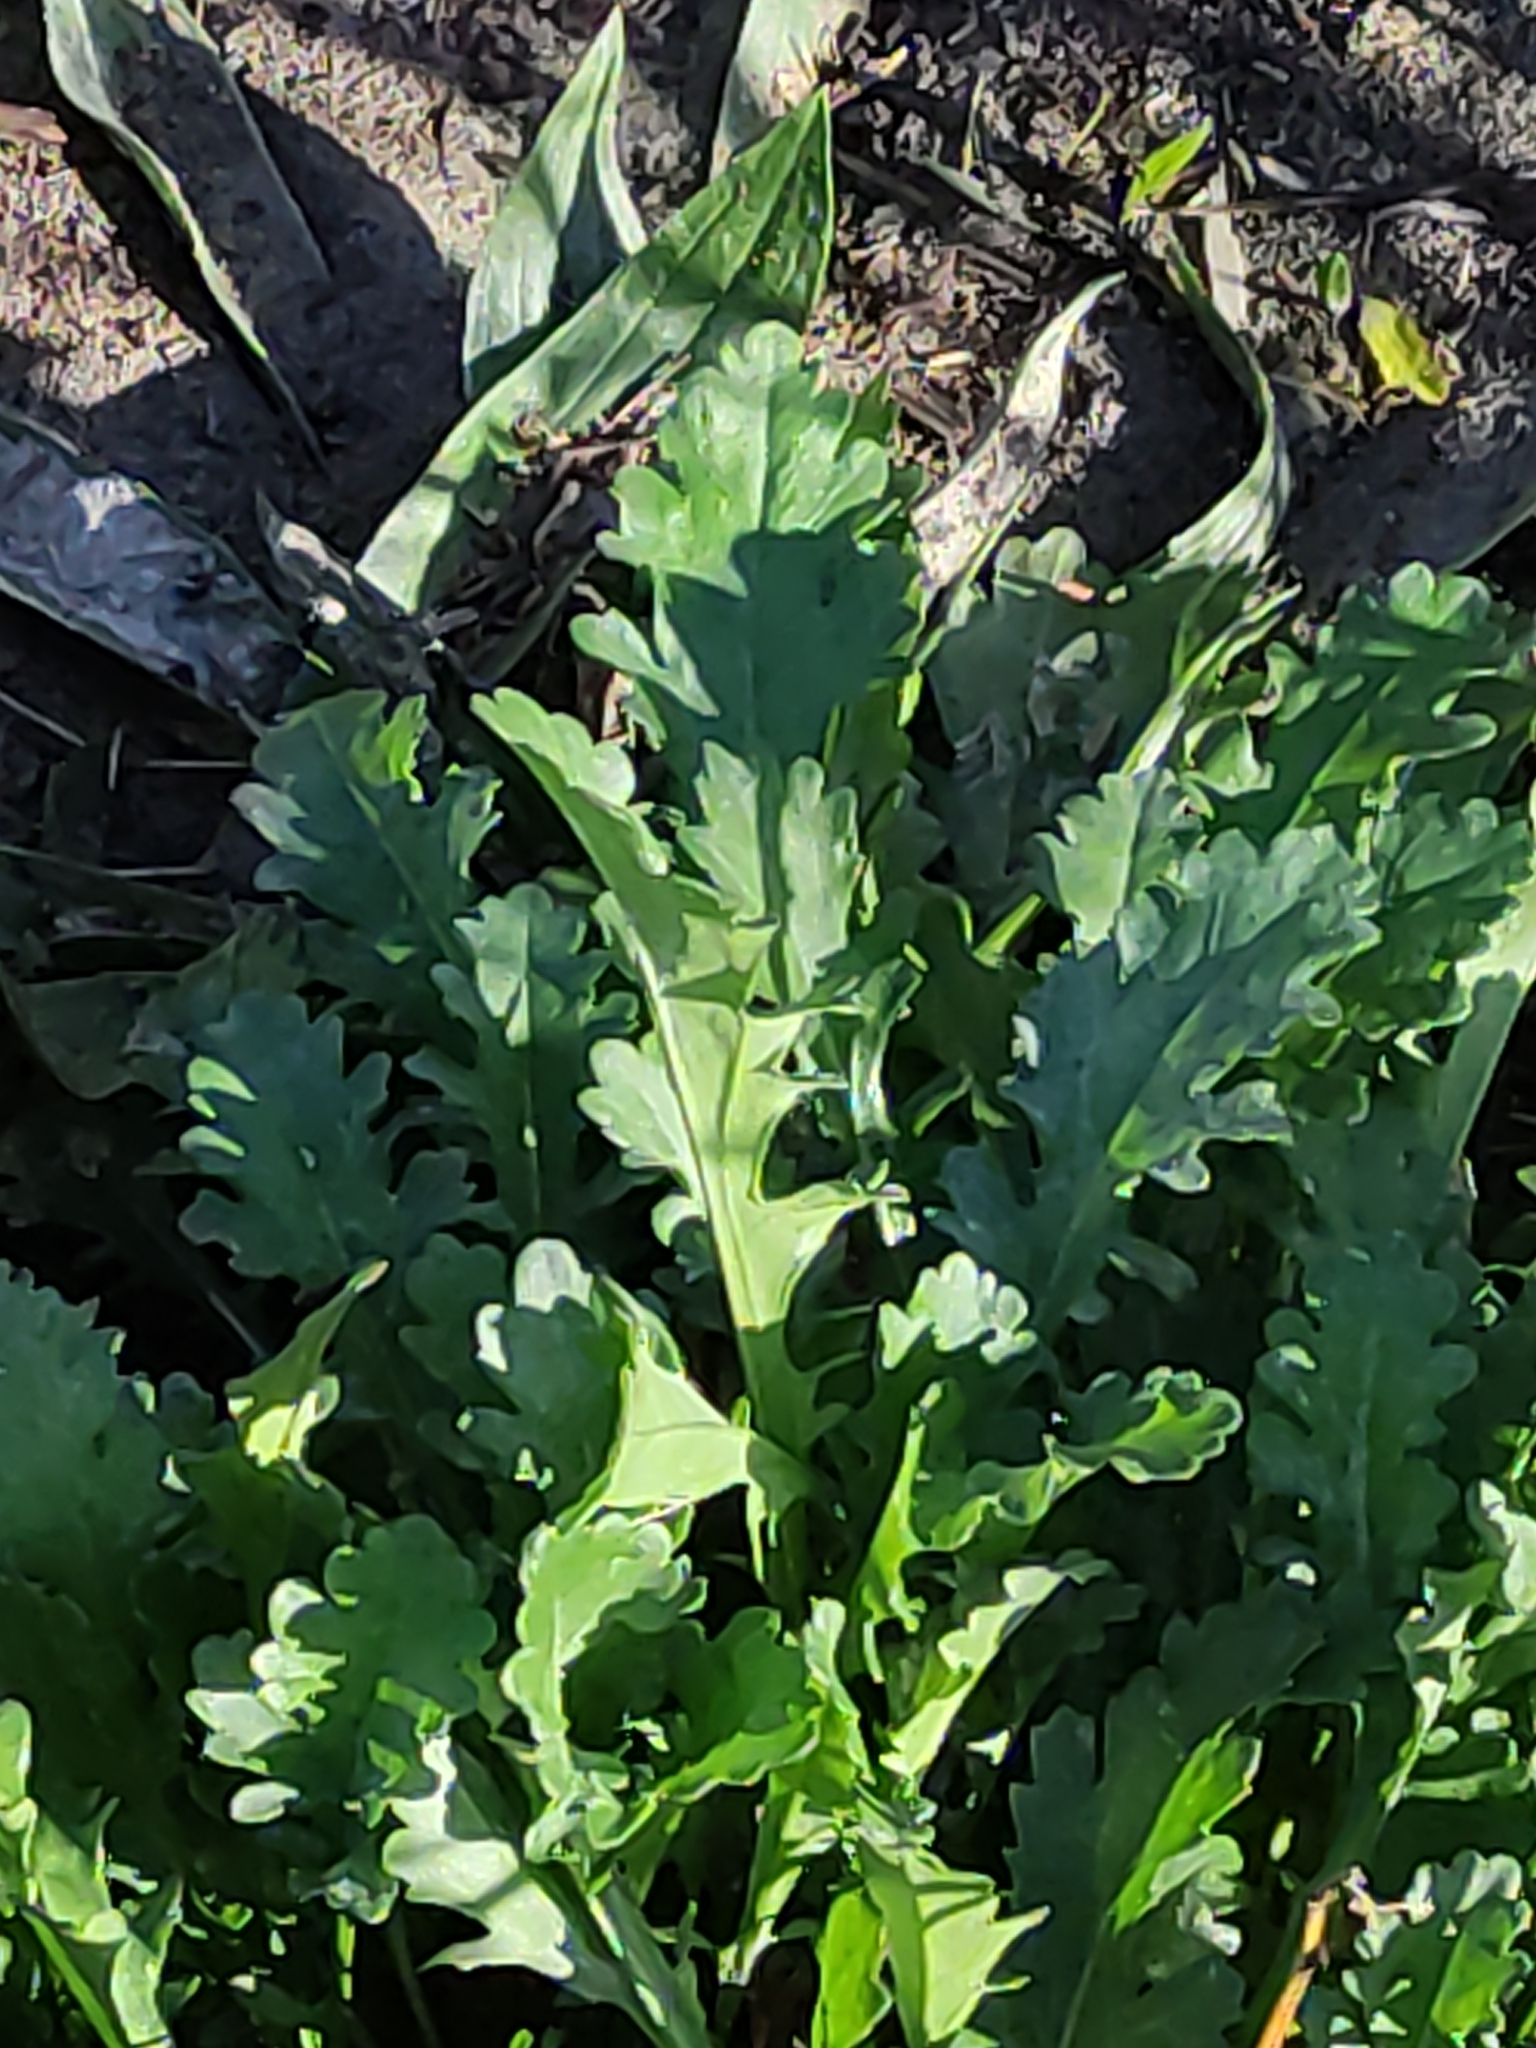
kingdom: Plantae
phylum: Tracheophyta
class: Magnoliopsida
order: Asterales
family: Asteraceae
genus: Leucanthemum
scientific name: Leucanthemum vulgare
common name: Oxeye daisy
